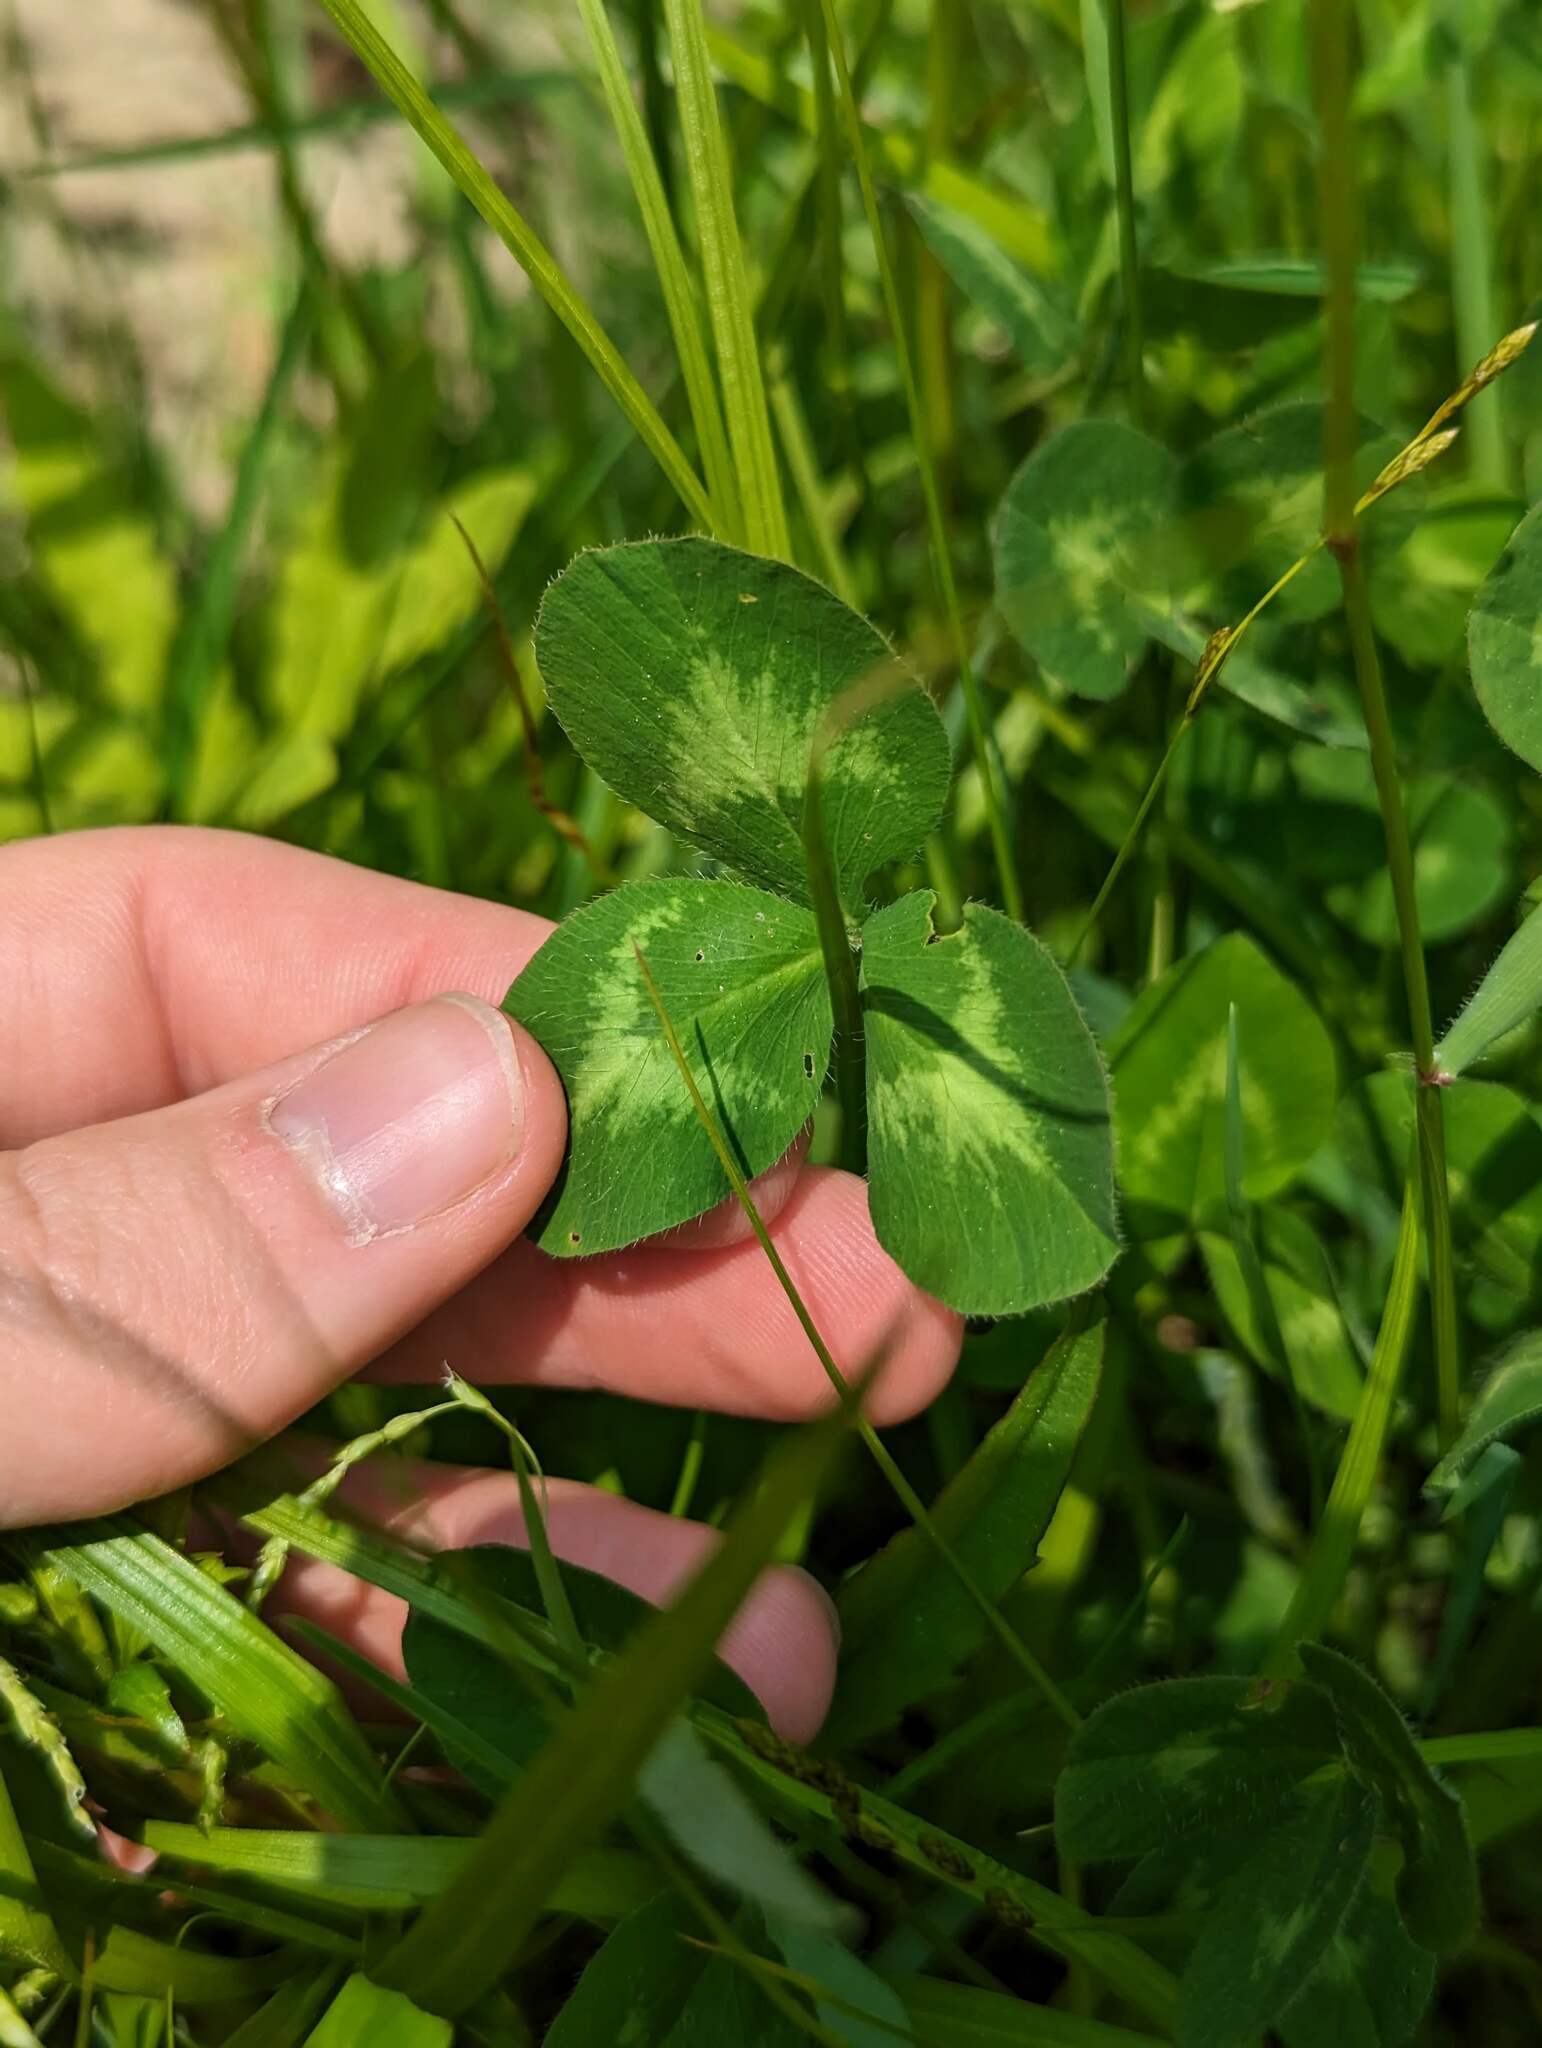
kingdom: Plantae
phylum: Tracheophyta
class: Magnoliopsida
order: Fabales
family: Fabaceae
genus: Trifolium
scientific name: Trifolium pratense
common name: Red clover
